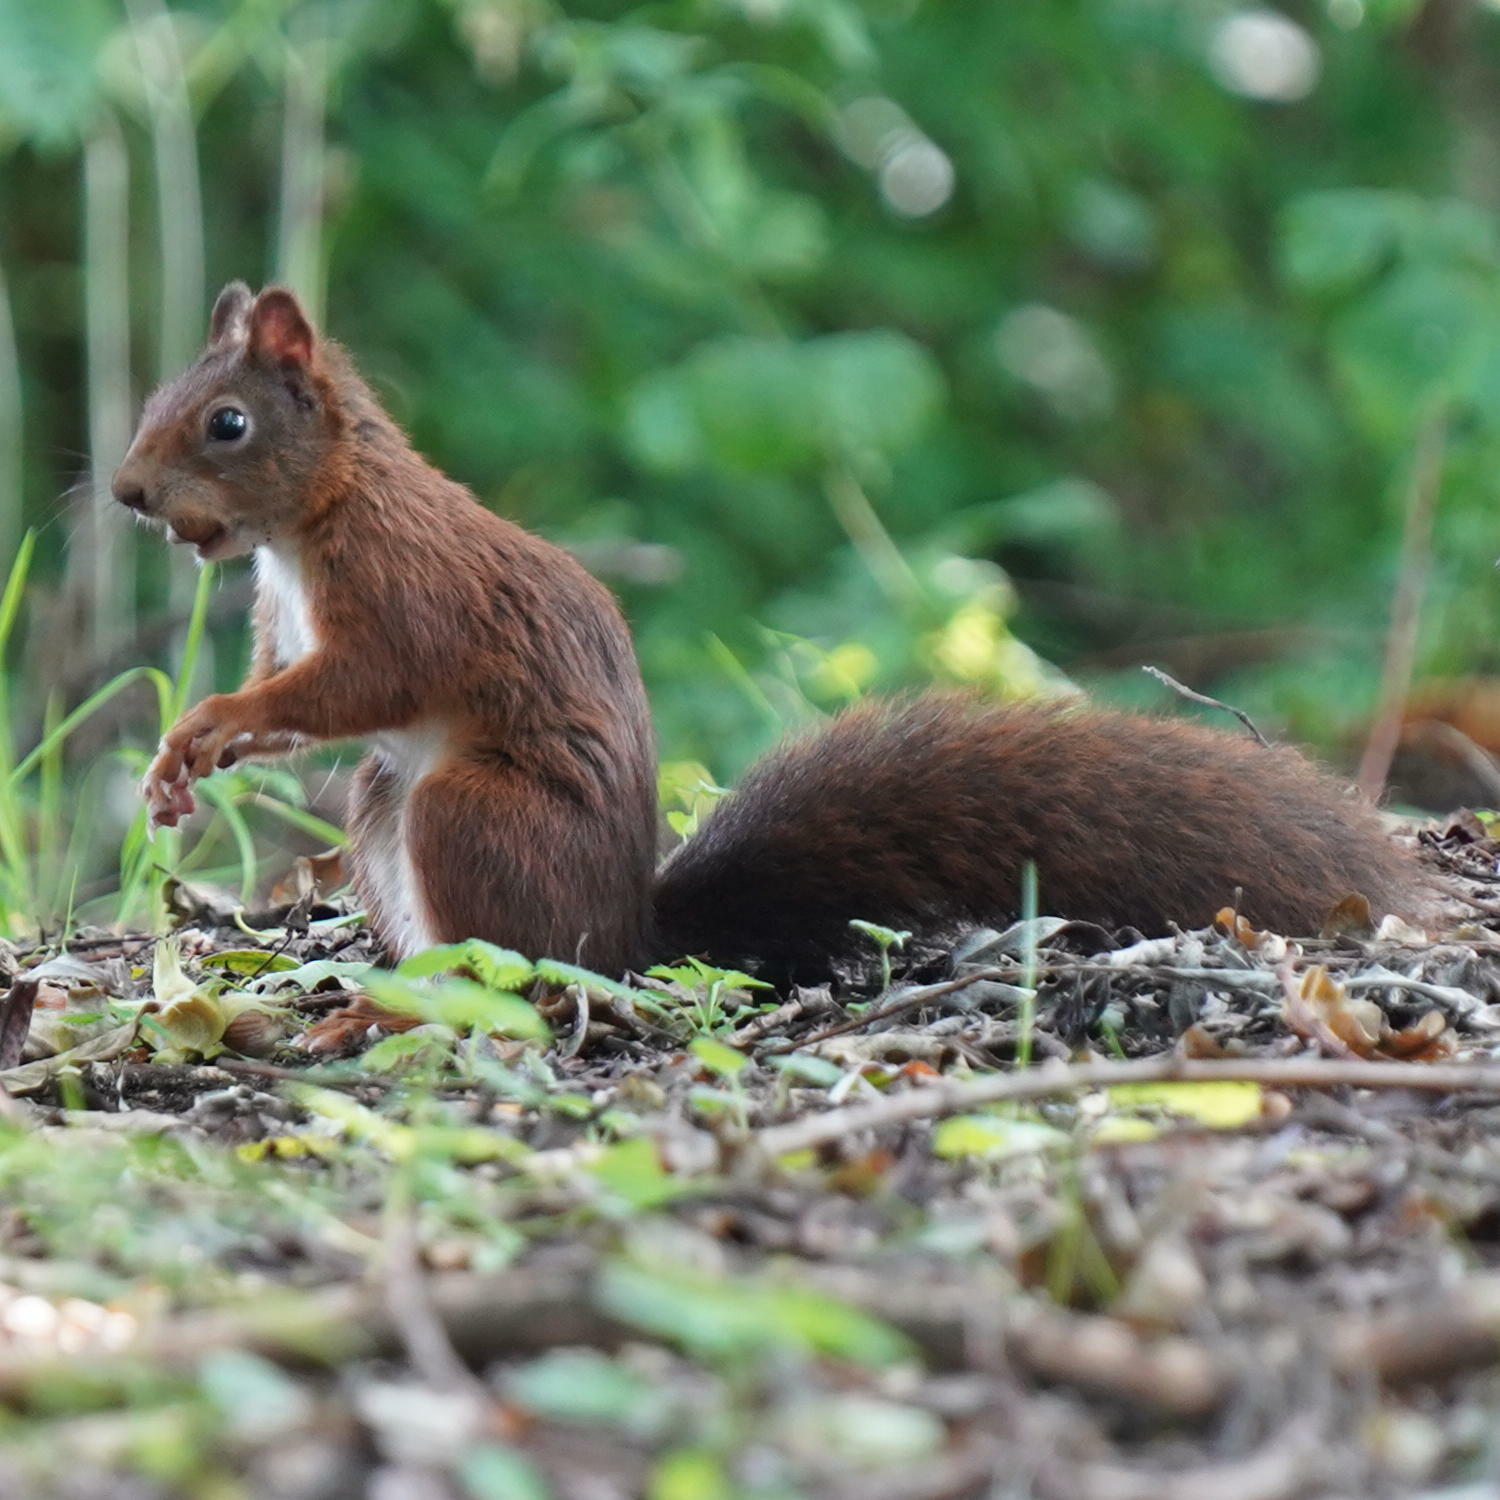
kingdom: Animalia
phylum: Chordata
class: Mammalia
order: Rodentia
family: Sciuridae
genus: Sciurus
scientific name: Sciurus vulgaris
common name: Eurasian red squirrel
